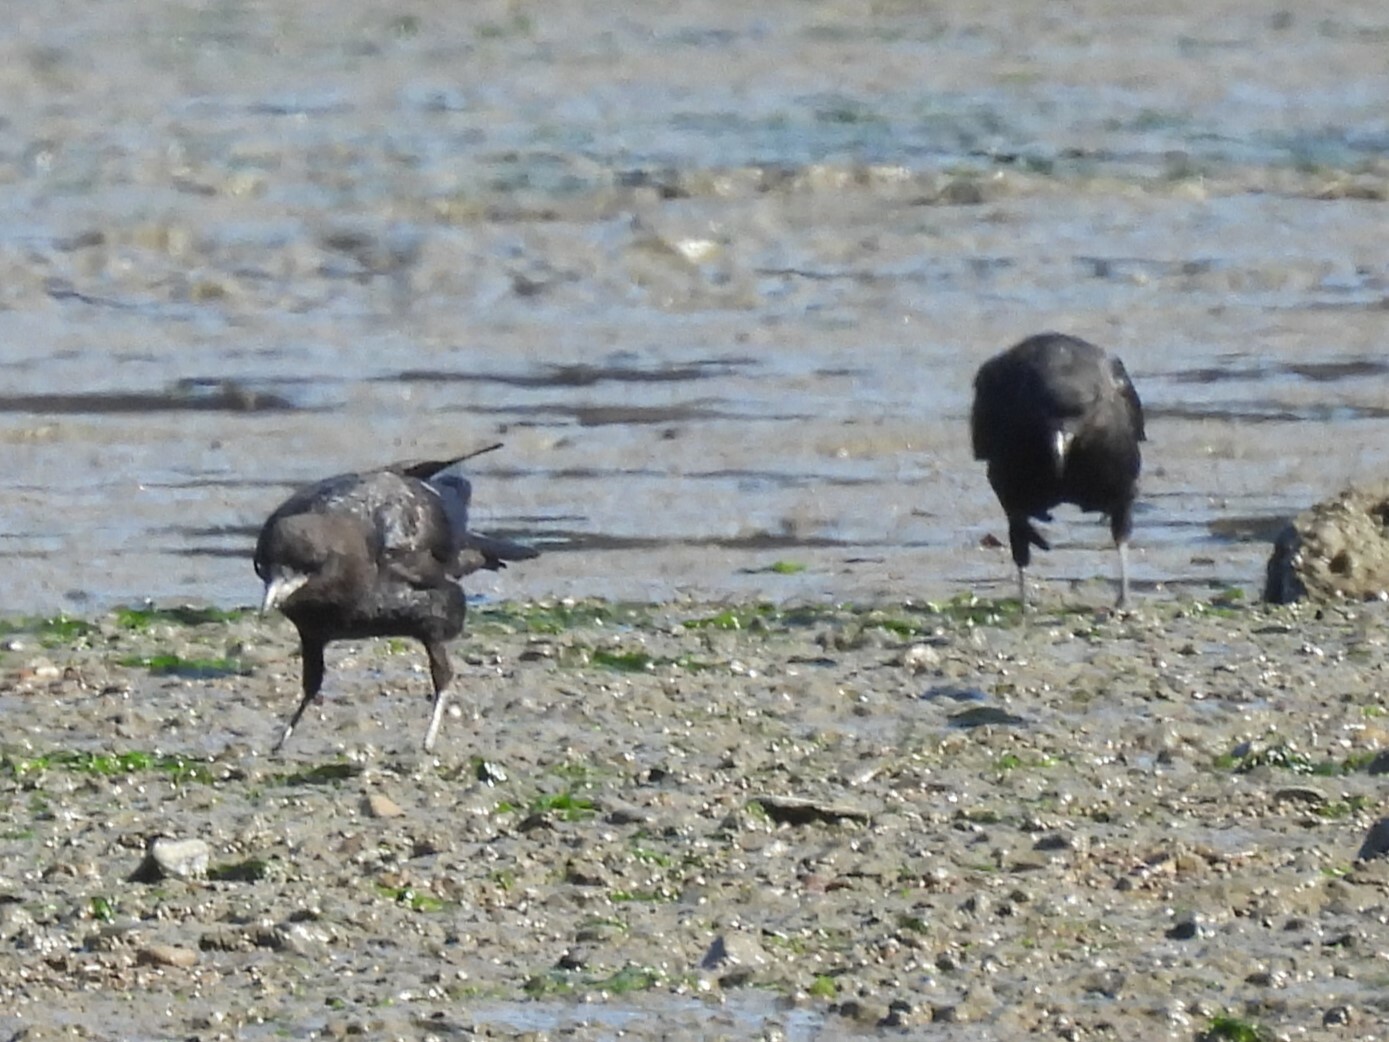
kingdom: Animalia
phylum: Chordata
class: Aves
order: Passeriformes
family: Corvidae
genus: Corvus
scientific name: Corvus brachyrhynchos
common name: American crow
